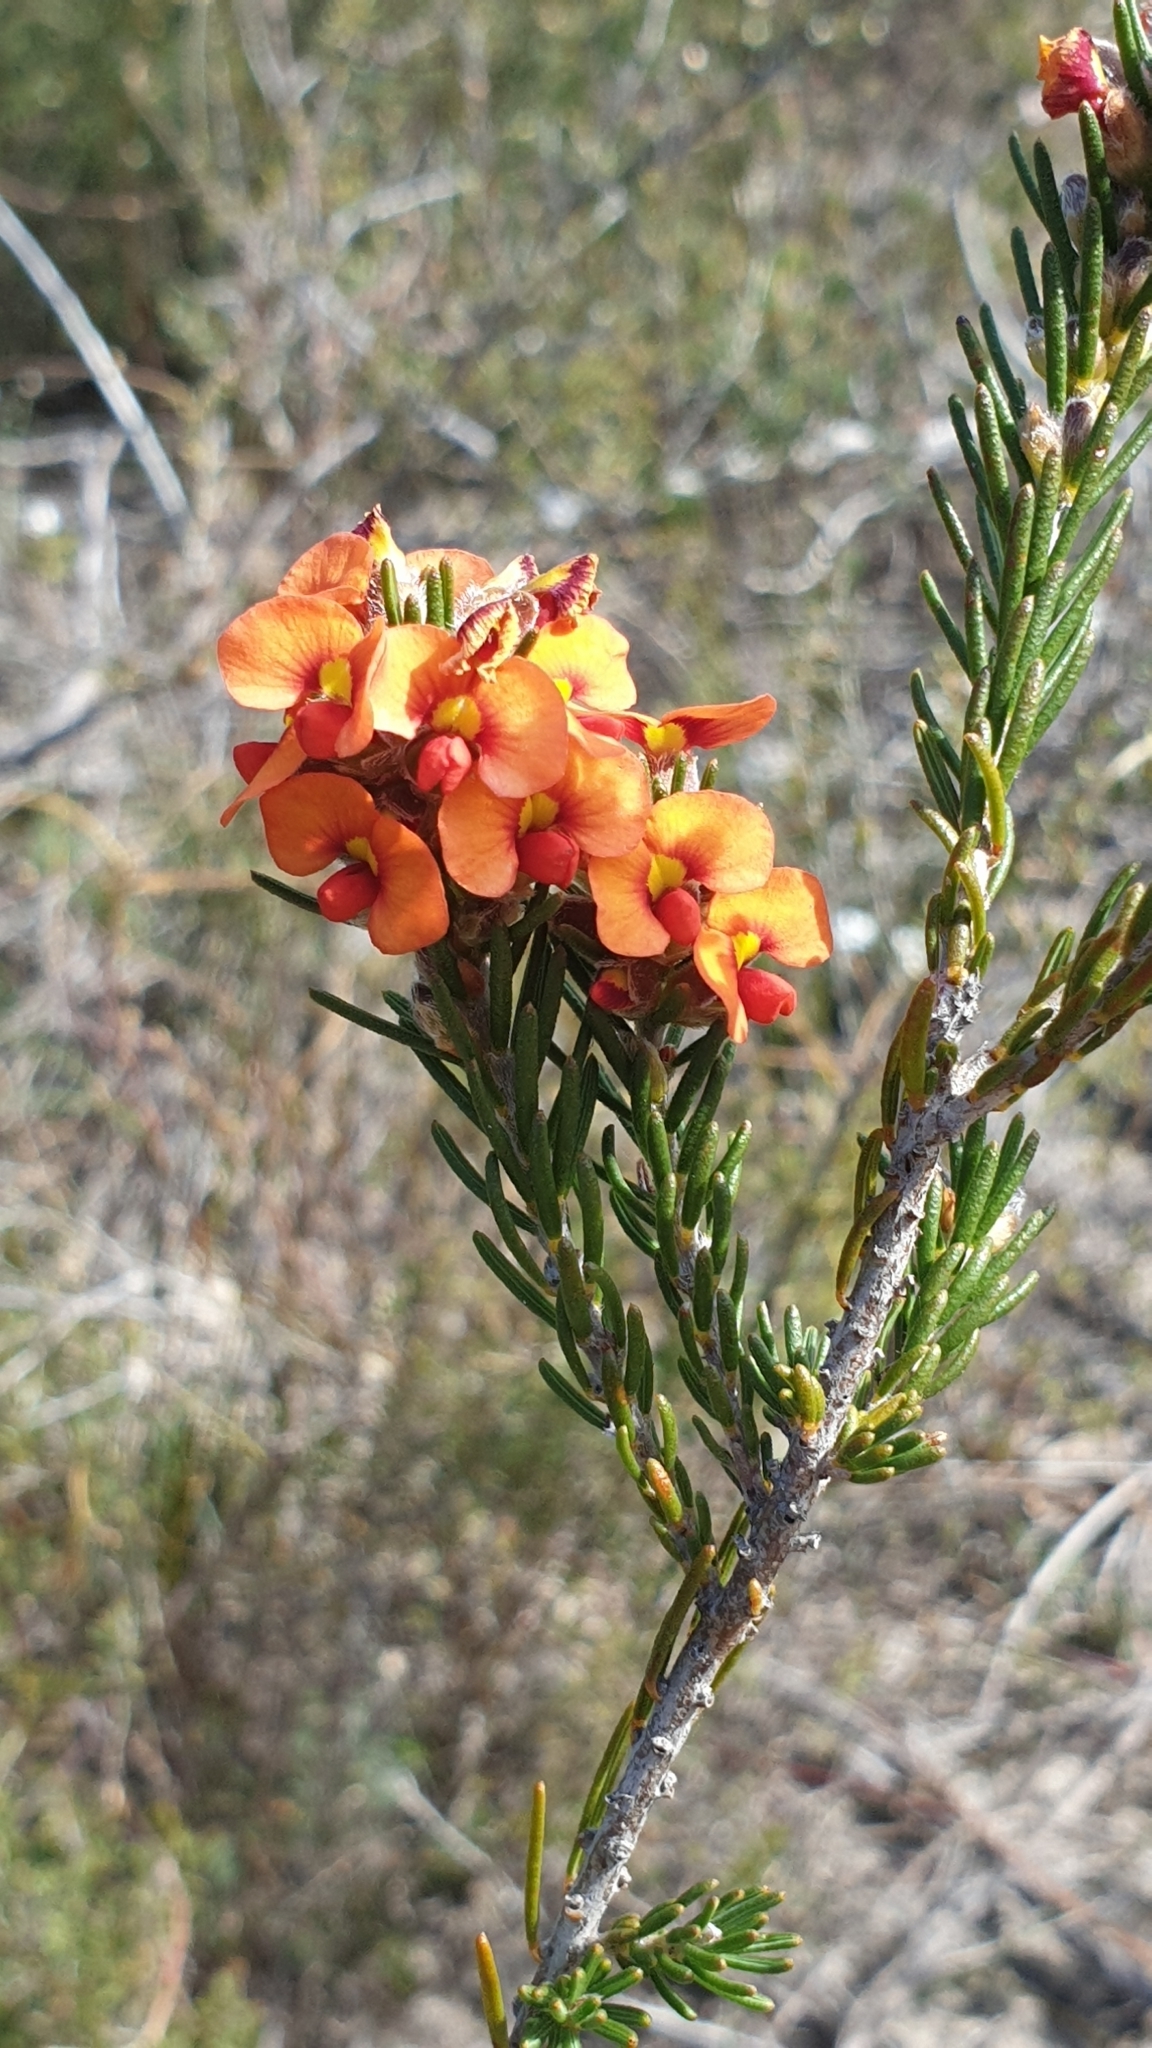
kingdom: Plantae
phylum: Tracheophyta
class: Magnoliopsida
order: Fabales
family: Fabaceae
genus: Dillwynia
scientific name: Dillwynia sericea
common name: Showy parrot-pea
